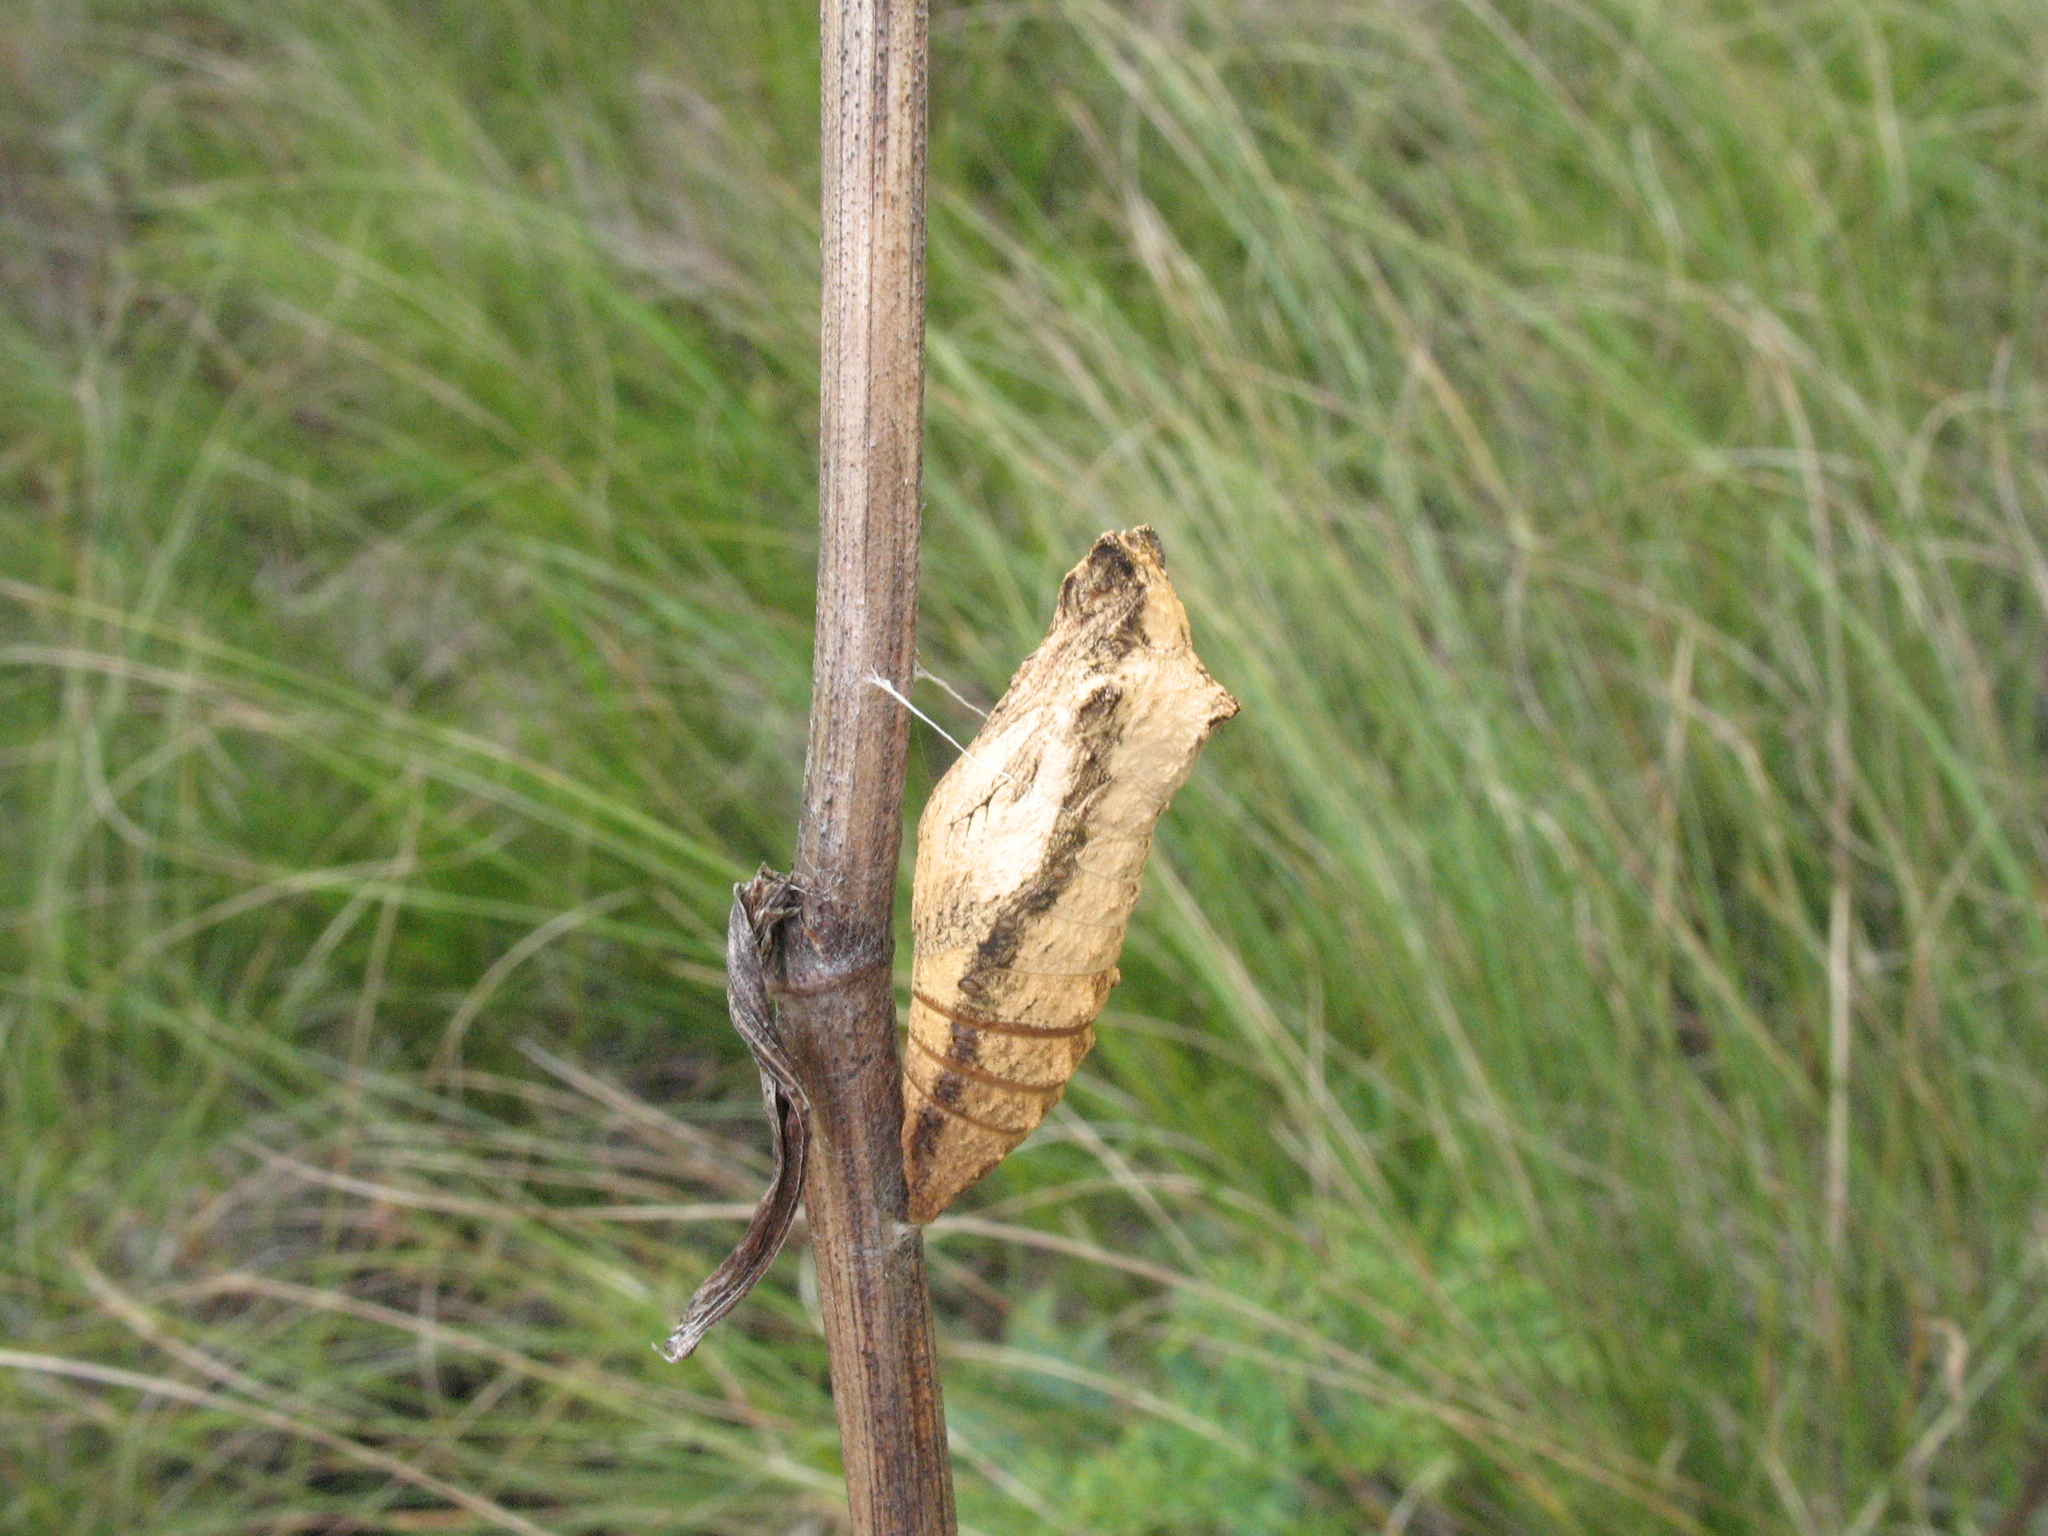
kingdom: Animalia
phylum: Arthropoda
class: Insecta
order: Lepidoptera
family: Papilionidae
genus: Papilio
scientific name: Papilio machaon
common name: Swallowtail
